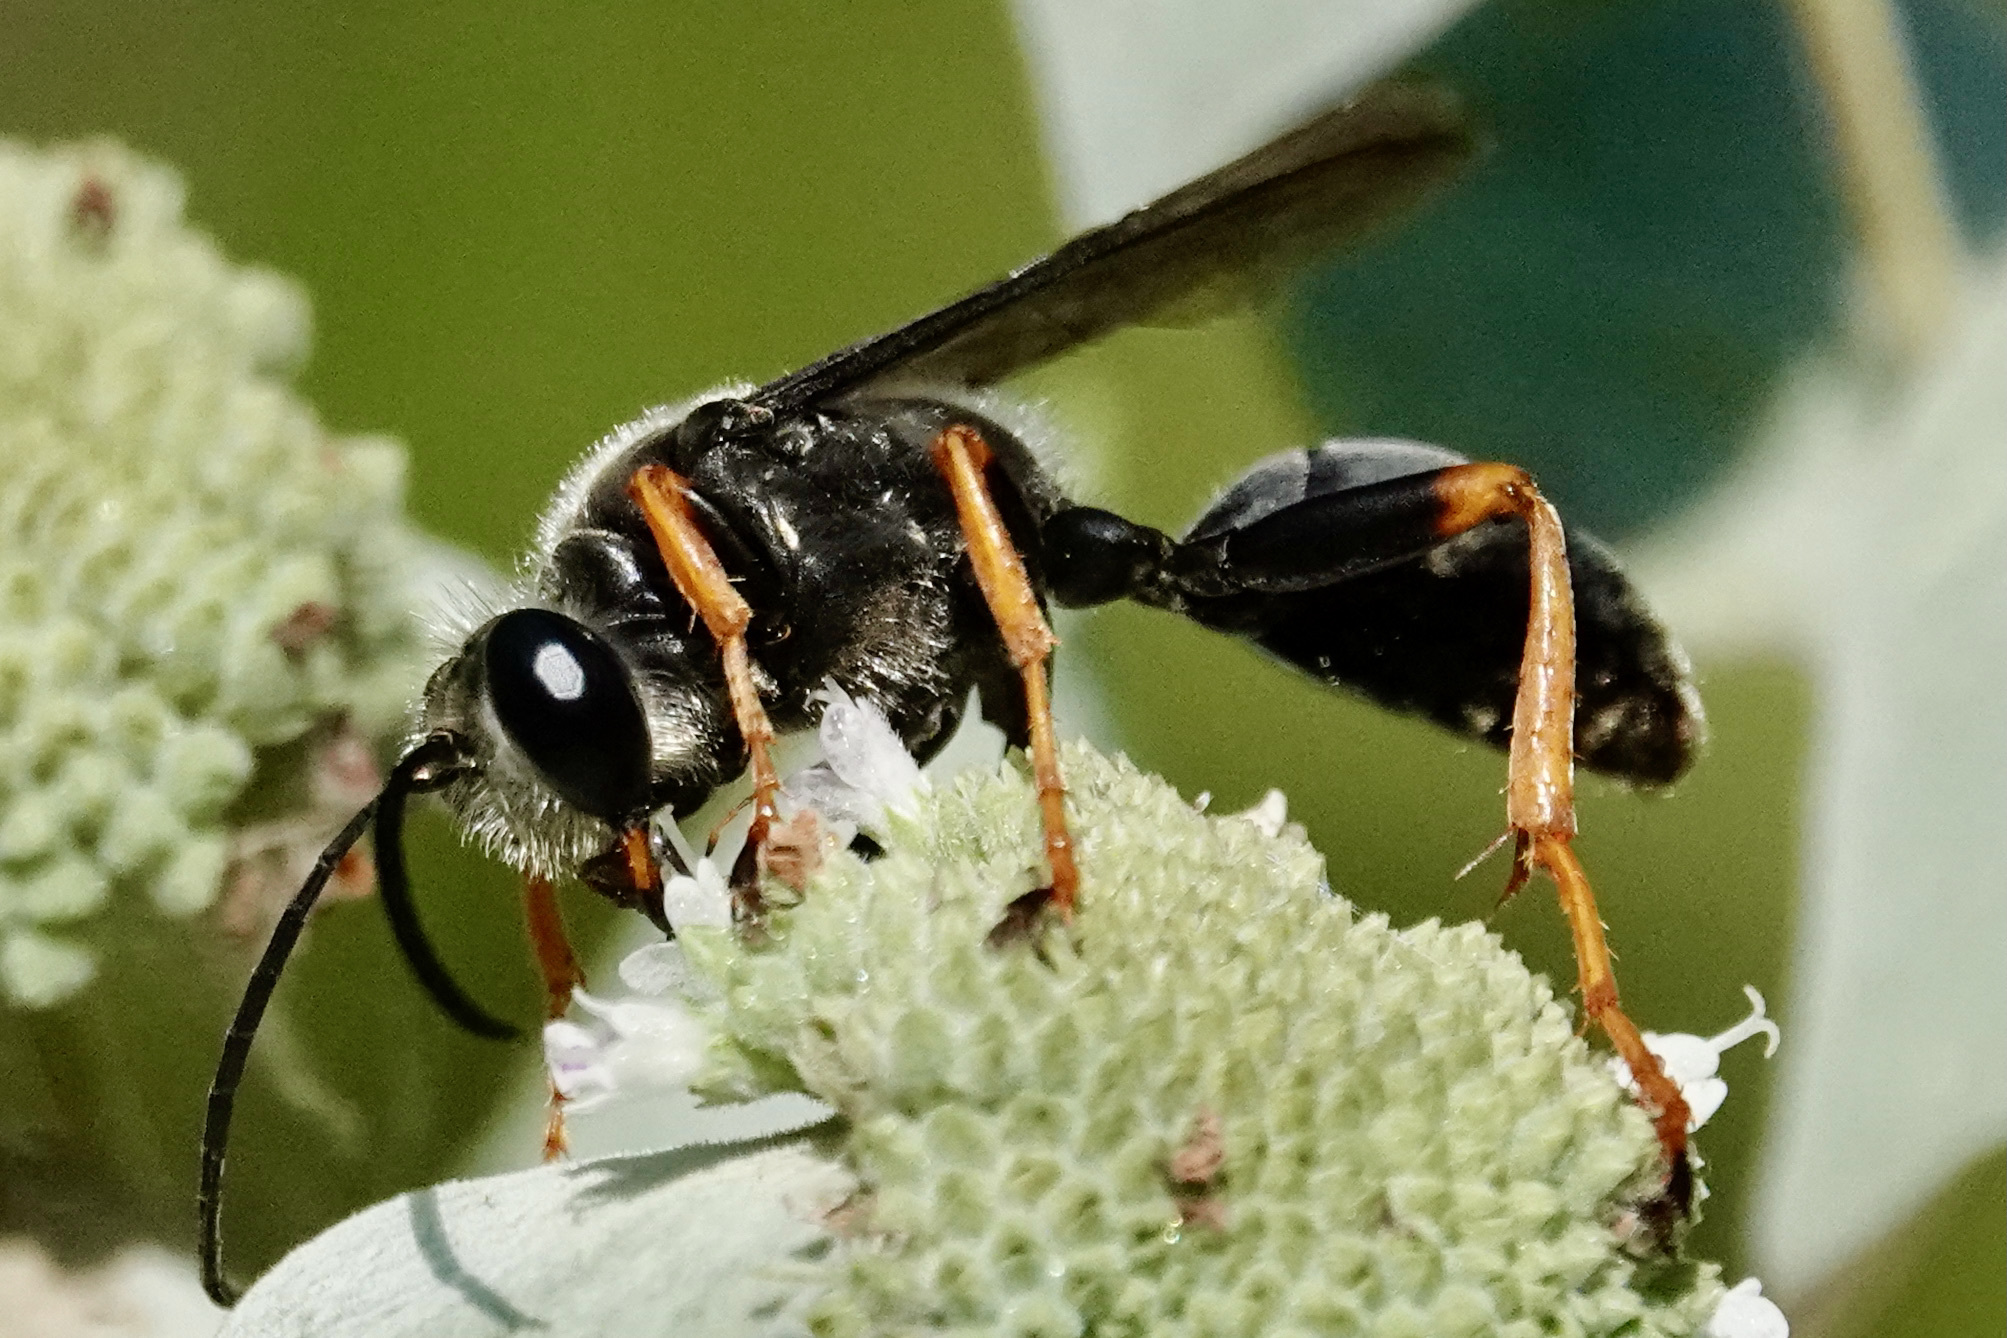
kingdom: Animalia
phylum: Arthropoda
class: Insecta
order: Hymenoptera
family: Sphecidae
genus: Sphex
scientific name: Sphex nudus
